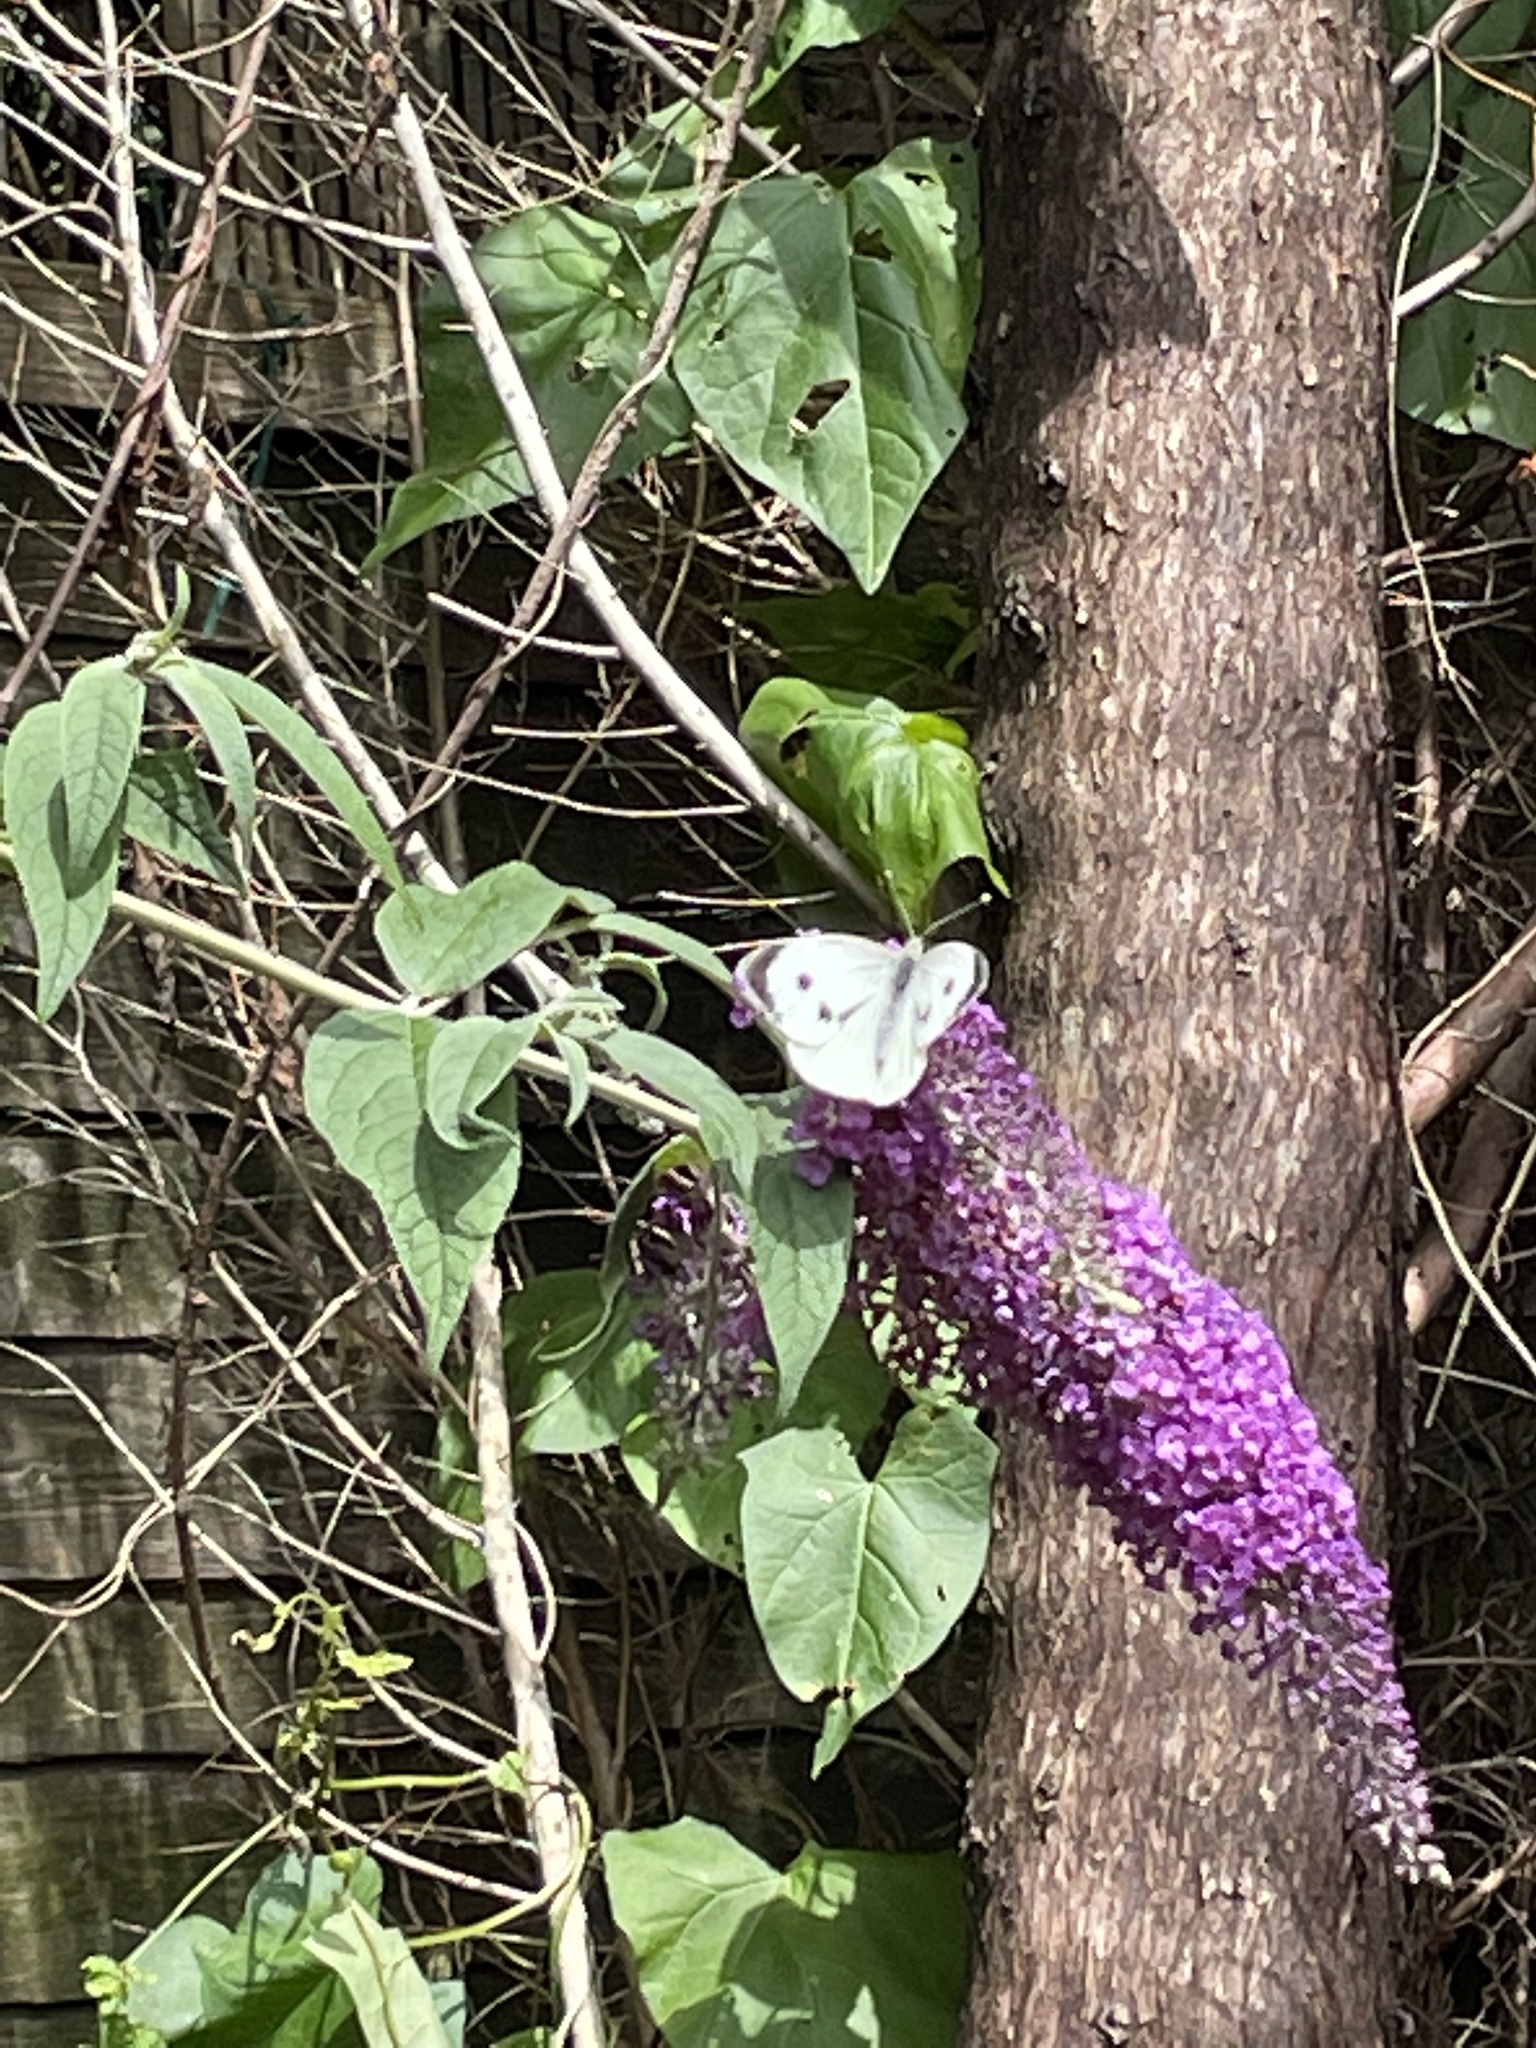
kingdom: Animalia
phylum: Arthropoda
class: Insecta
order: Lepidoptera
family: Pieridae
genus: Pieris
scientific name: Pieris brassicae
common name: Large white
